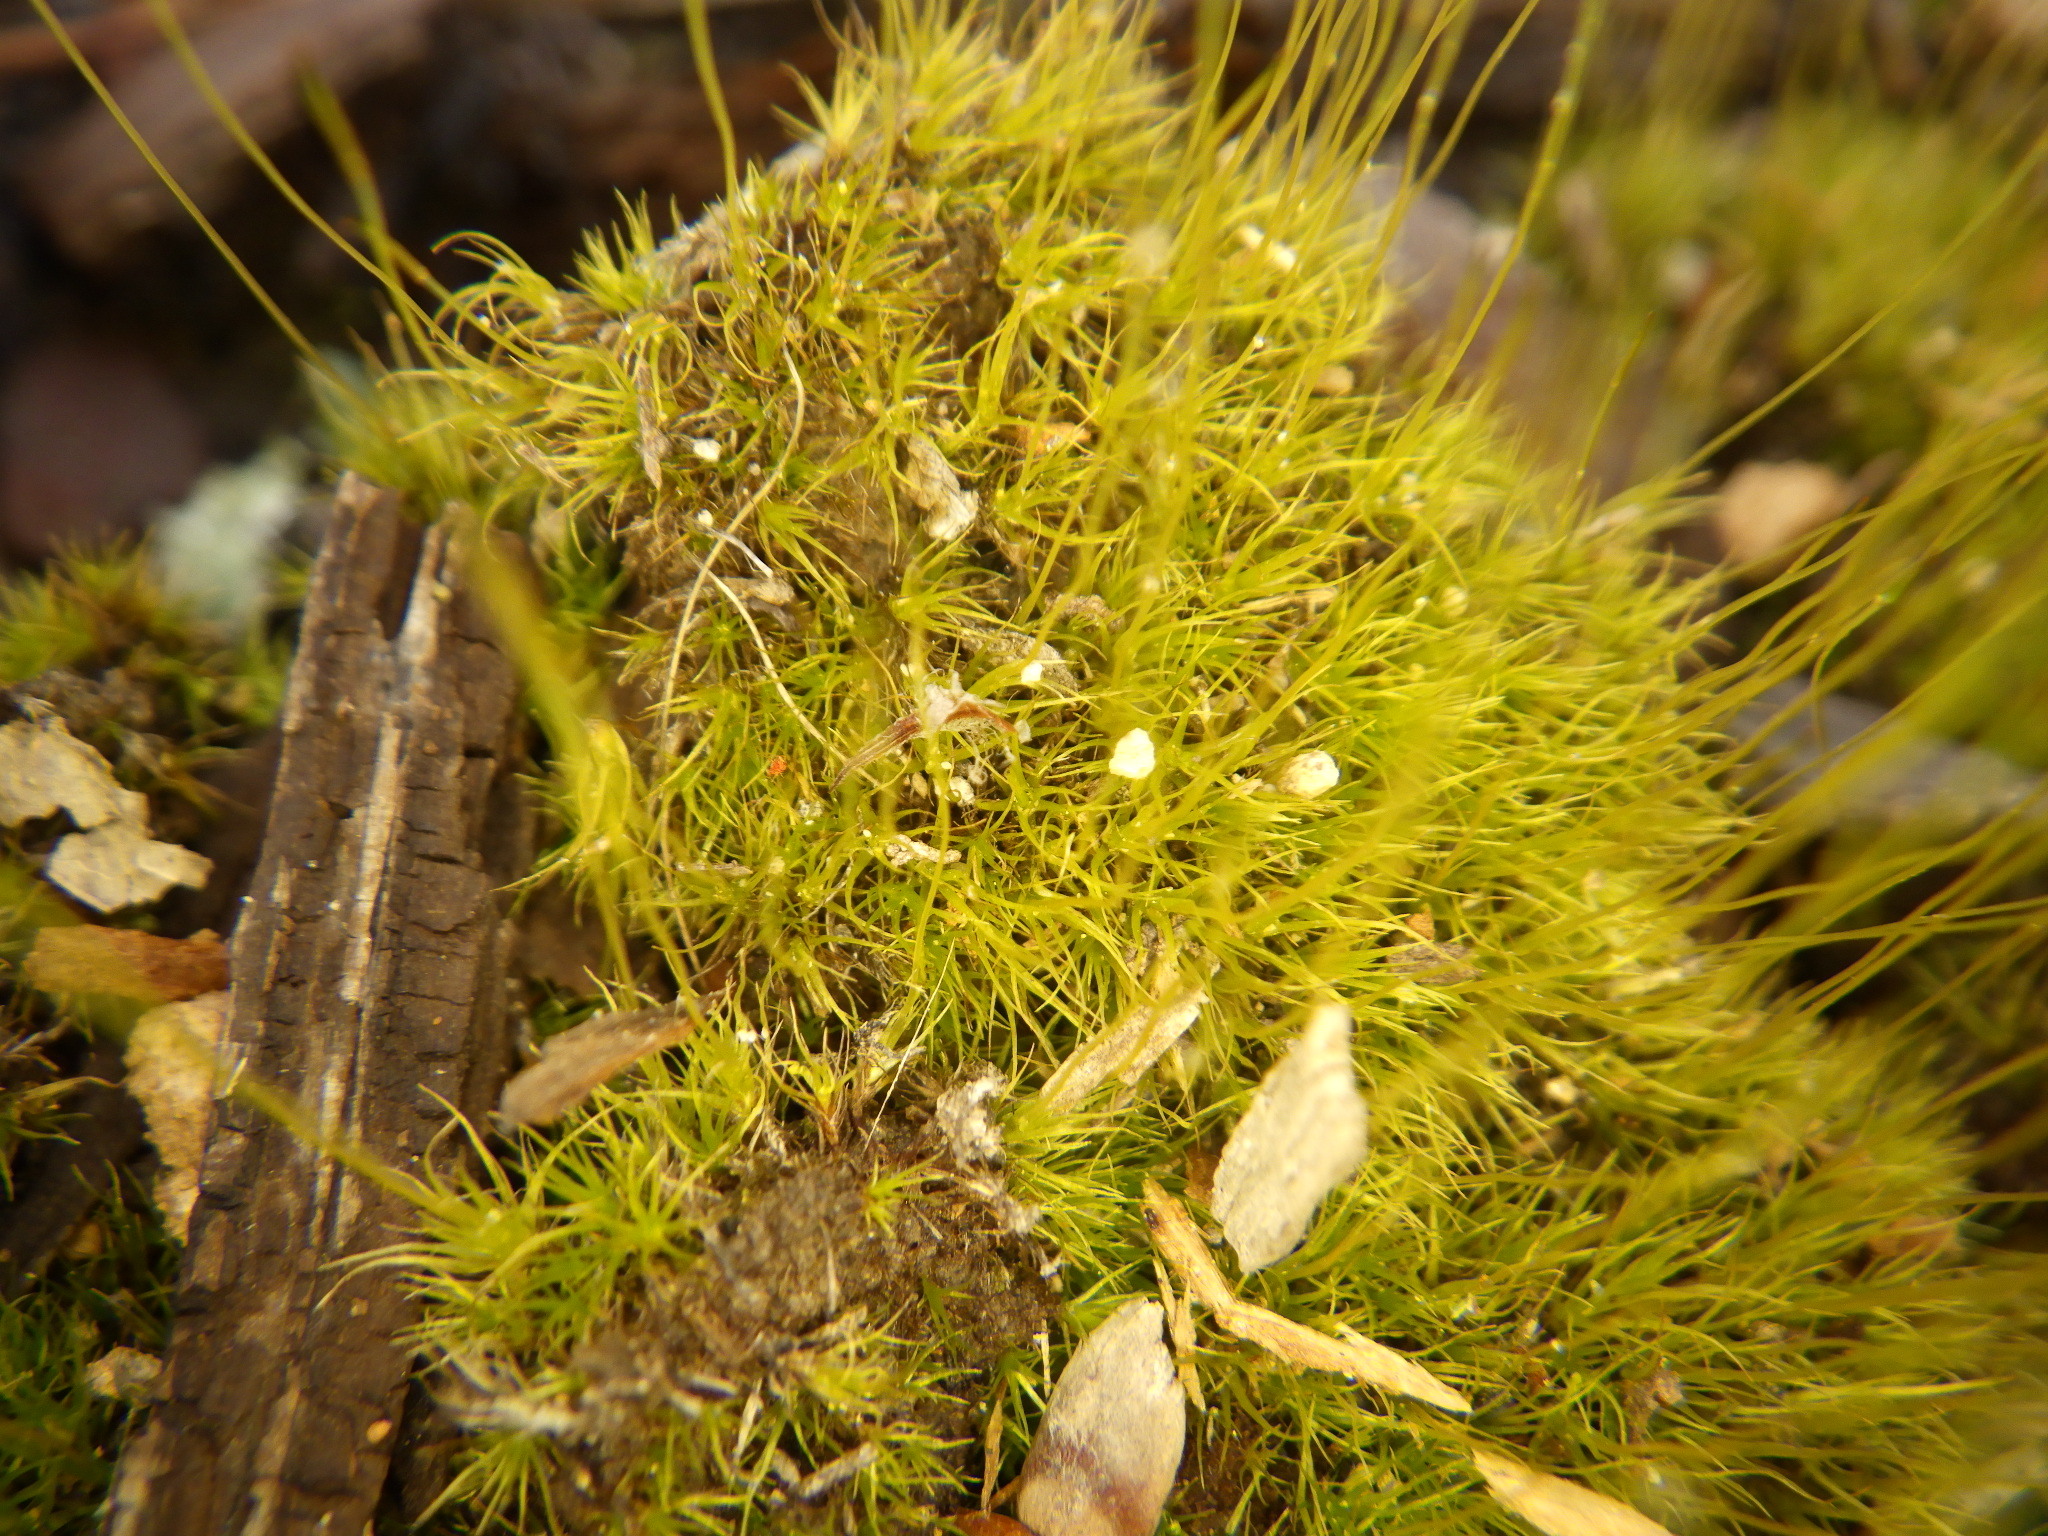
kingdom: Plantae
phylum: Bryophyta
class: Bryopsida
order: Dicranales
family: Ditrichaceae
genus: Ditrichum
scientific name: Ditrichum pallidum
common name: Pale cow-hair moss
